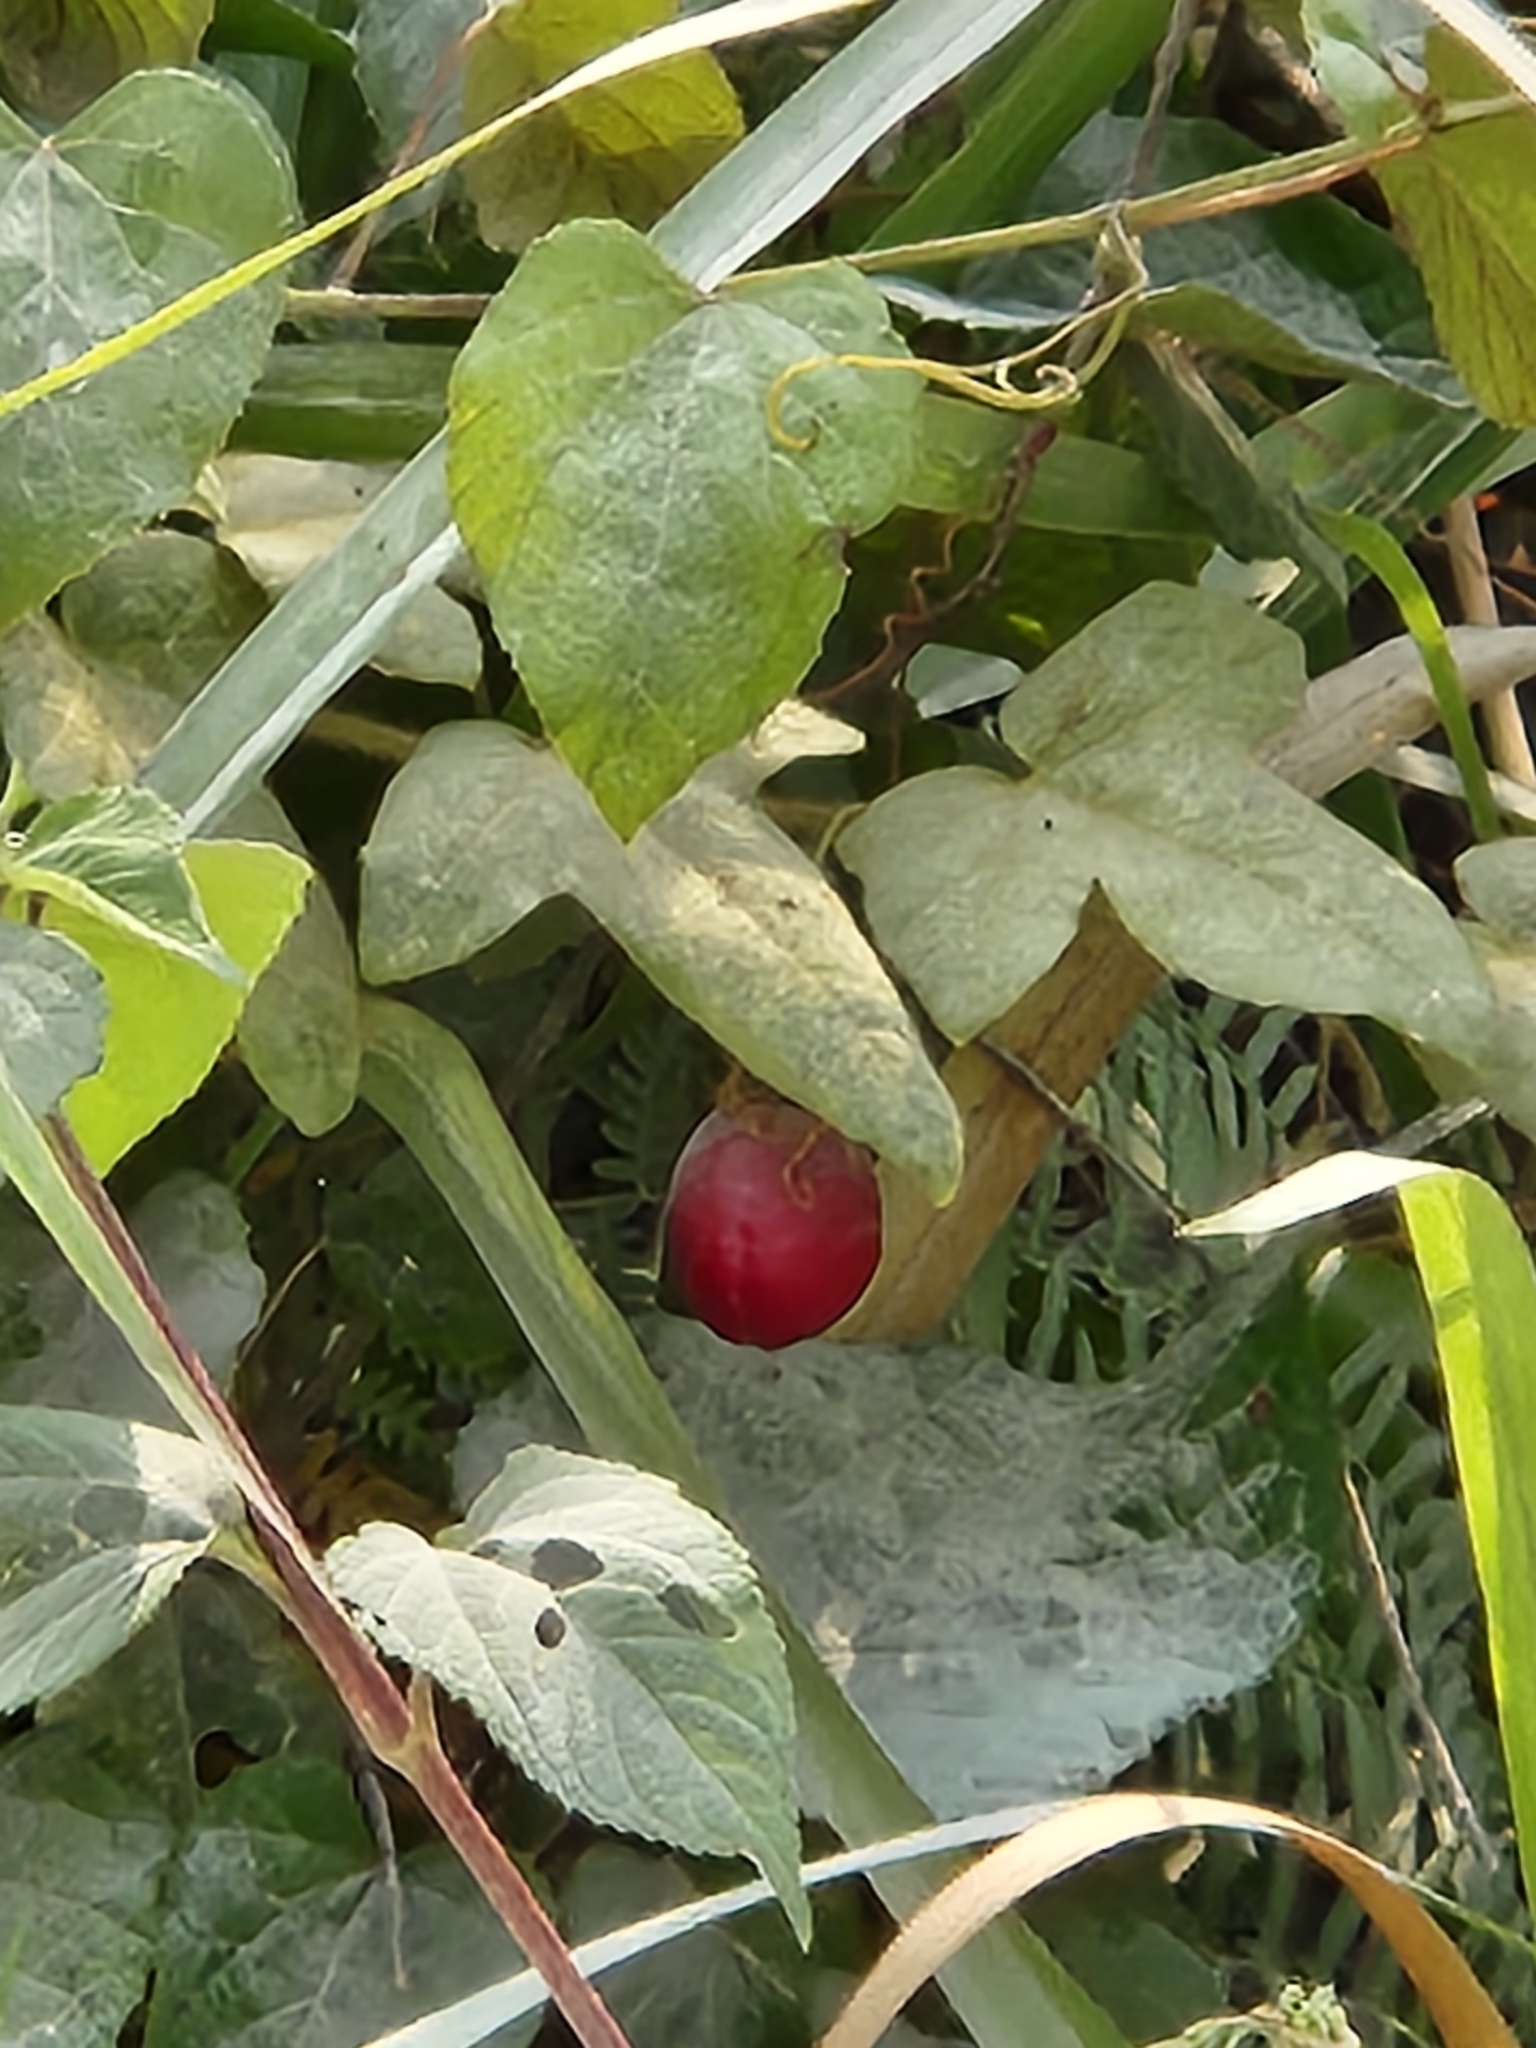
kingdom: Plantae
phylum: Tracheophyta
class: Magnoliopsida
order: Malpighiales
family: Passifloraceae
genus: Passiflora
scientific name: Passiflora ciliata
